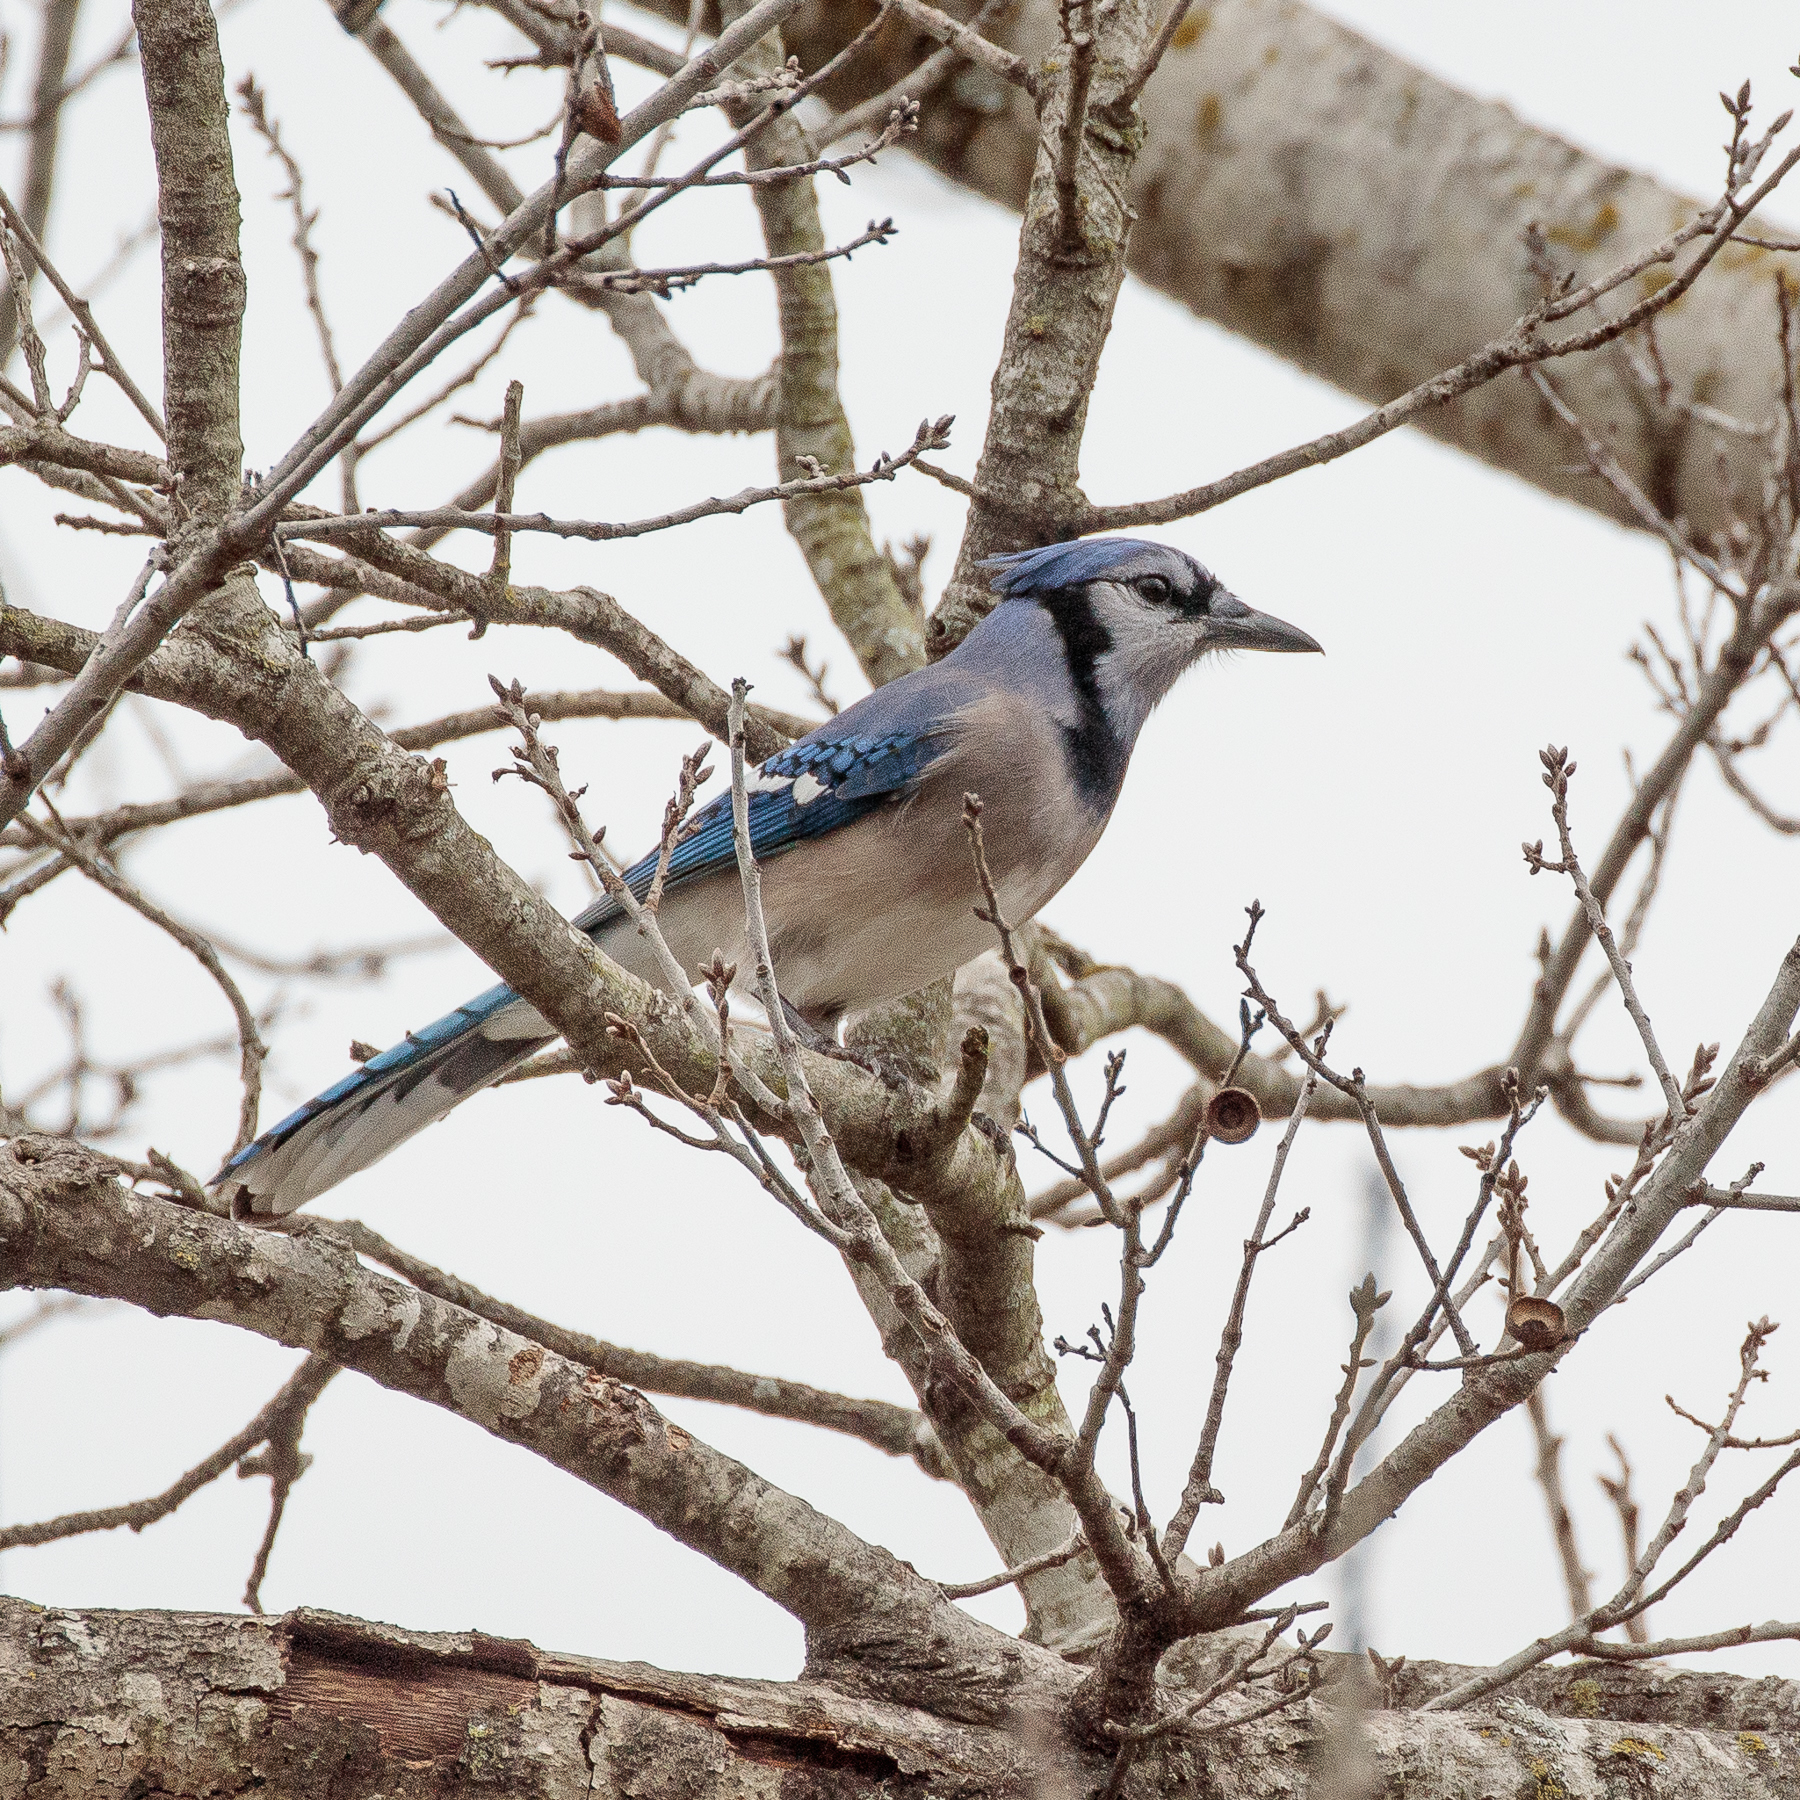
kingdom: Animalia
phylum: Chordata
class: Aves
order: Passeriformes
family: Corvidae
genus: Cyanocitta
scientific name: Cyanocitta cristata
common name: Blue jay
